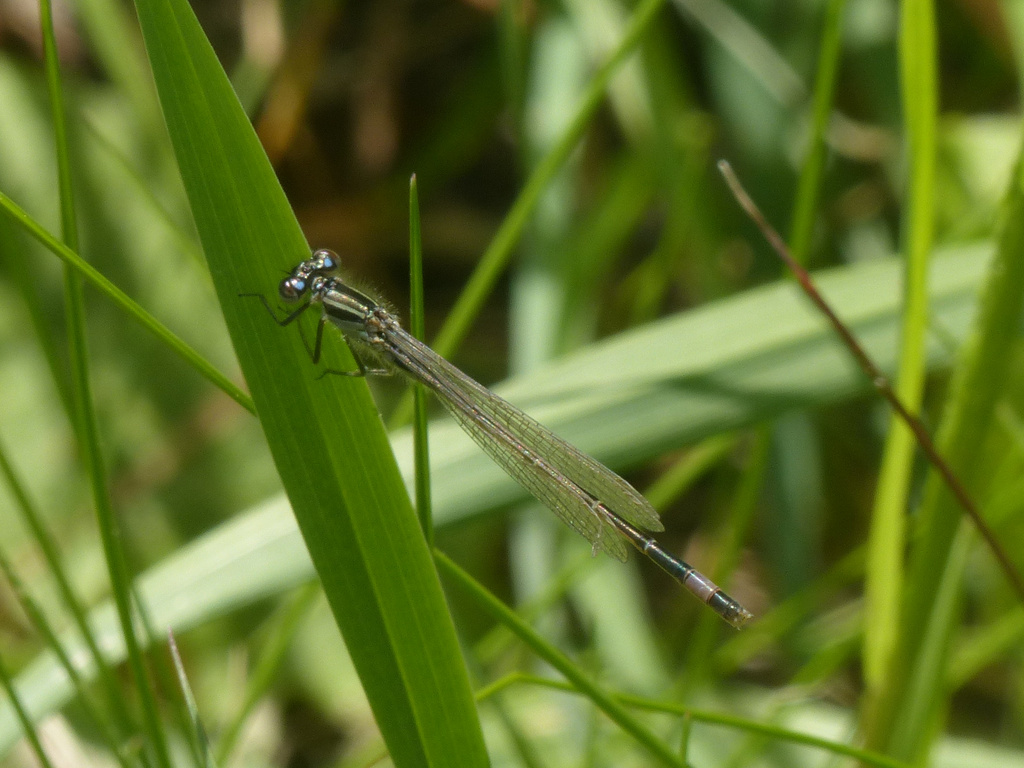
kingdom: Animalia
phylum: Arthropoda
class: Insecta
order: Odonata
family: Coenagrionidae
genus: Ischnura
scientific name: Ischnura elegans
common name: Blue-tailed damselfly
